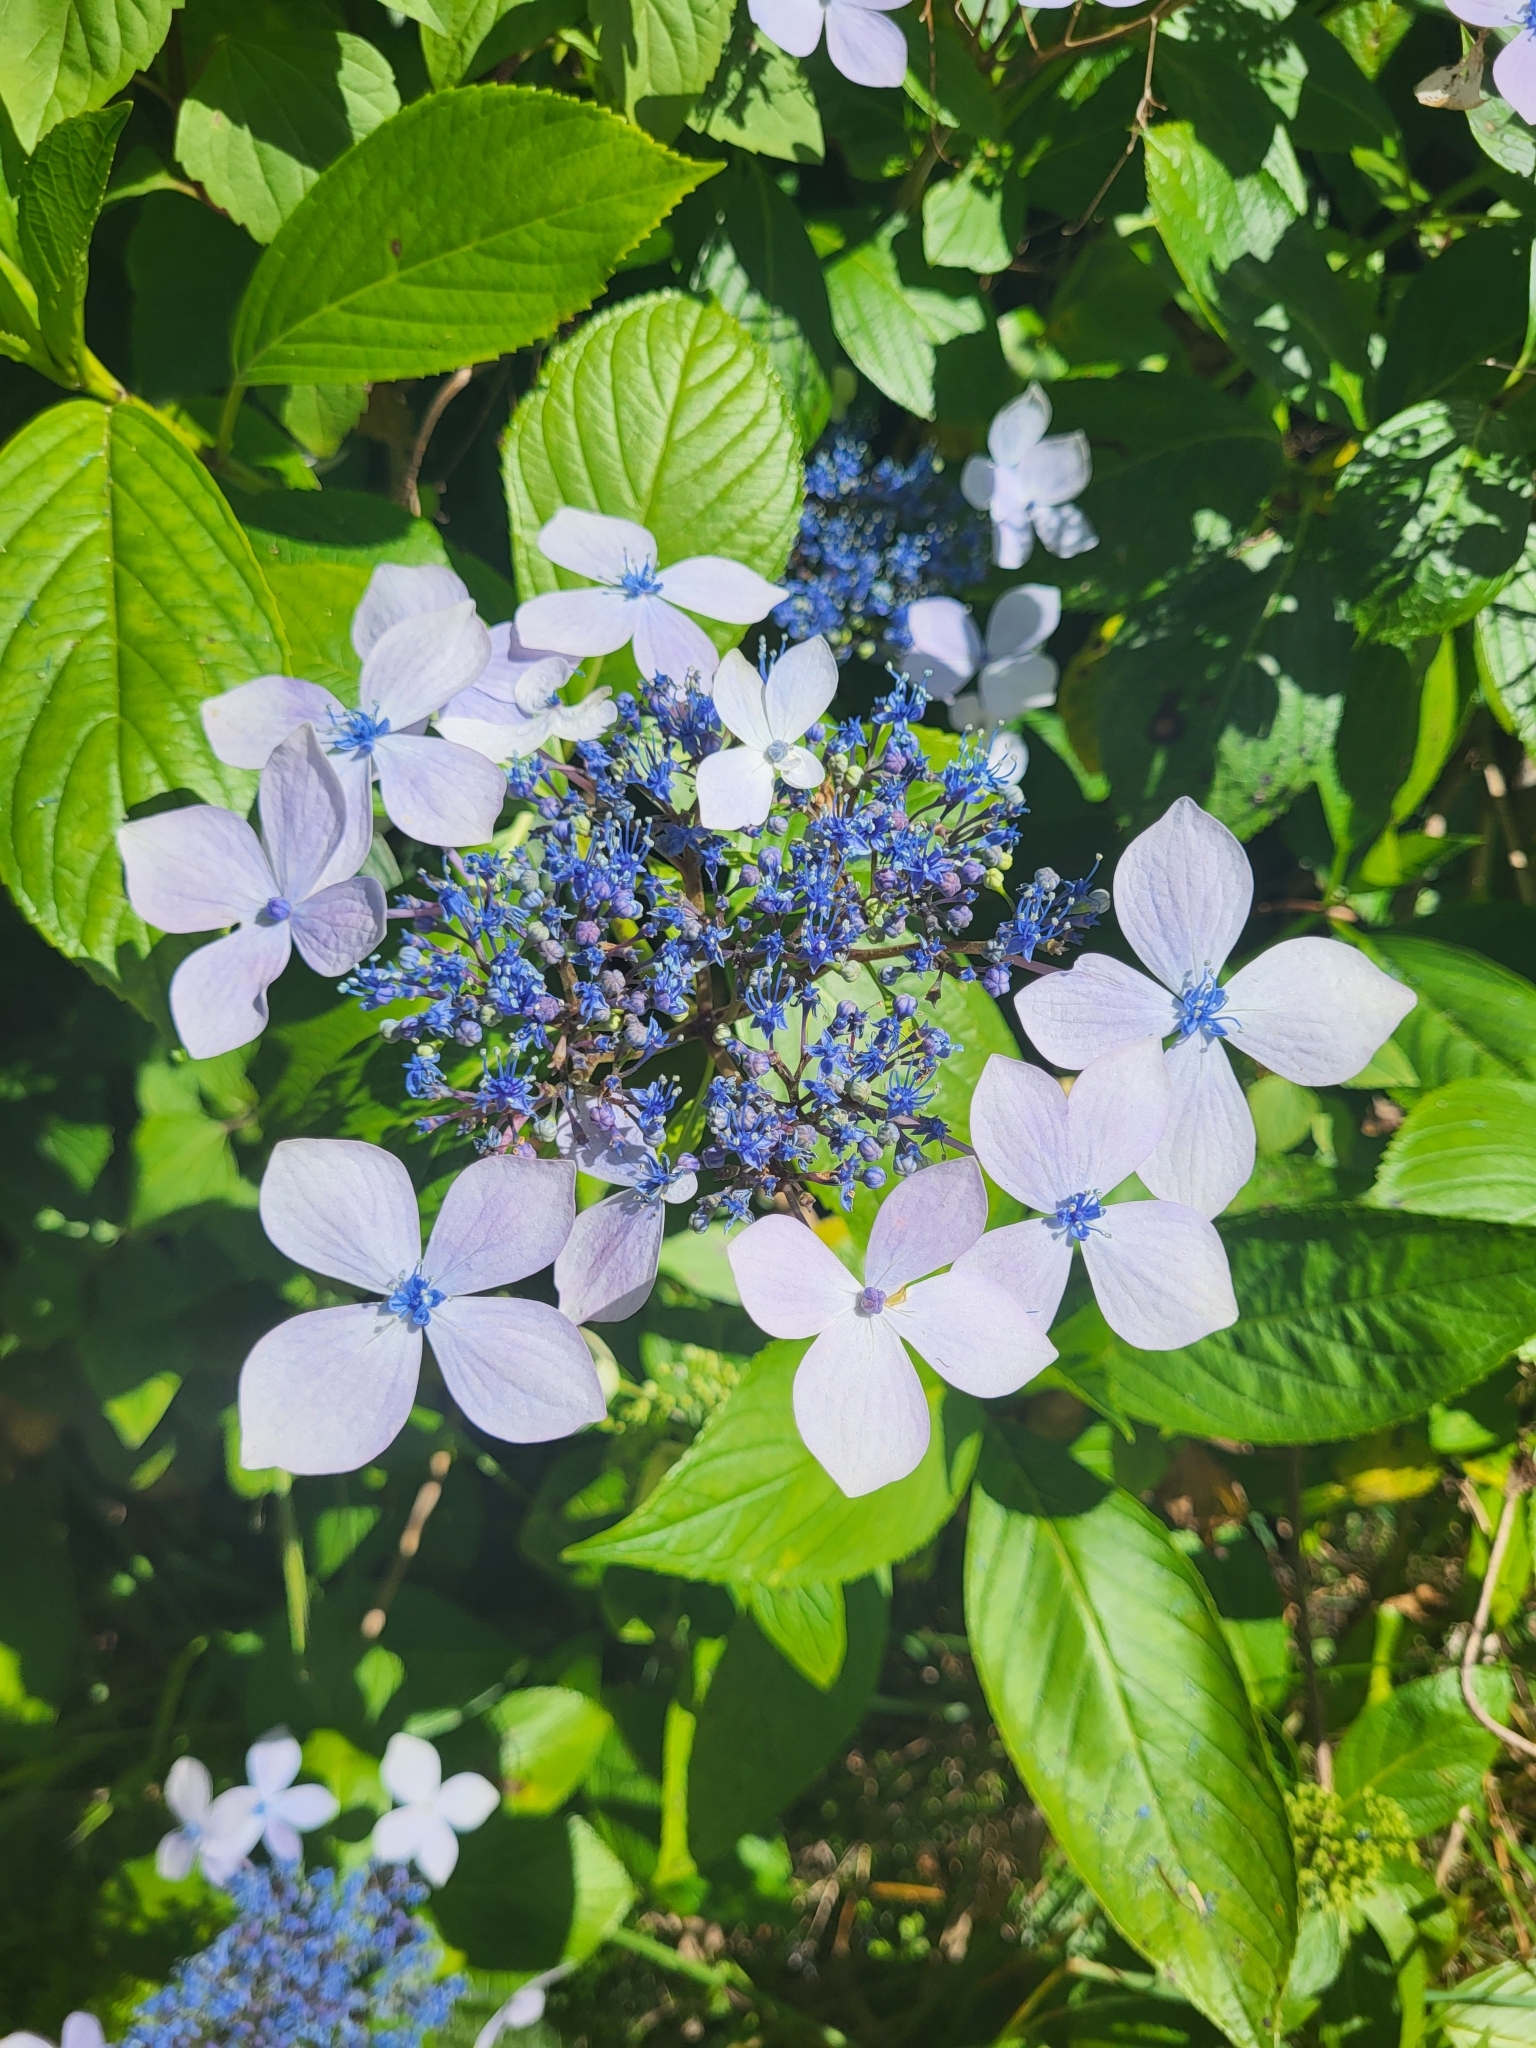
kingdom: Plantae
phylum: Tracheophyta
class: Magnoliopsida
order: Cornales
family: Hydrangeaceae
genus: Hydrangea
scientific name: Hydrangea macrophylla
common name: Hydrangea
